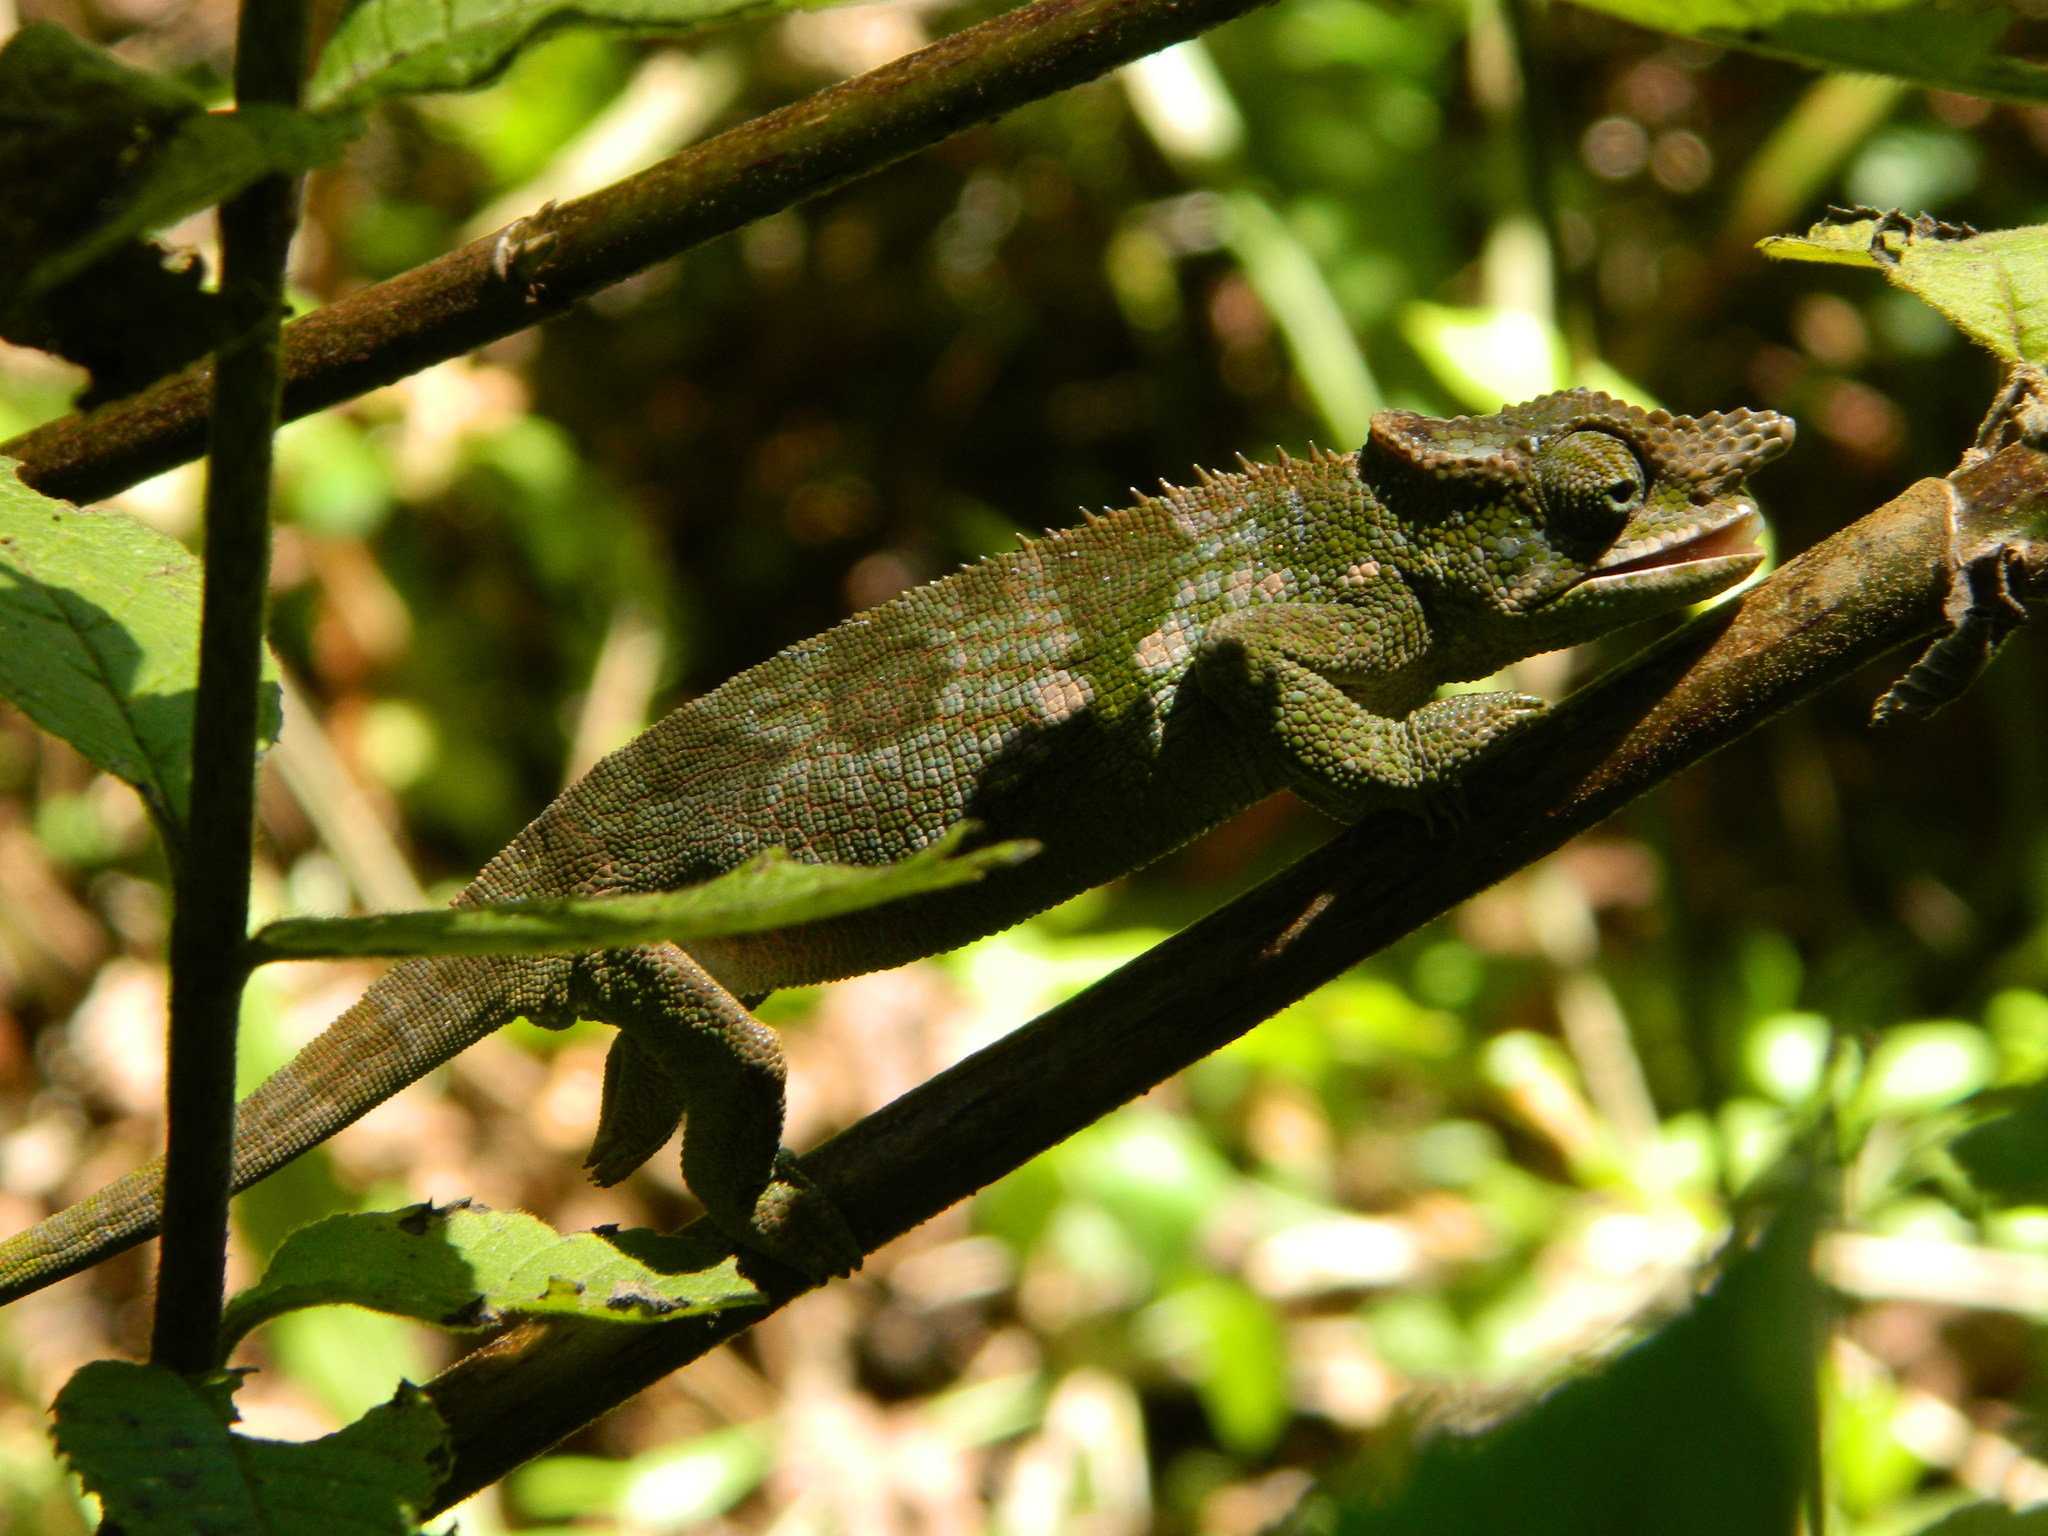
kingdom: Animalia
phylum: Chordata
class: Squamata
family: Chamaeleonidae
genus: Kinyongia
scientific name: Kinyongia multituberculata
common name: West usambara blade-horned chameleon
